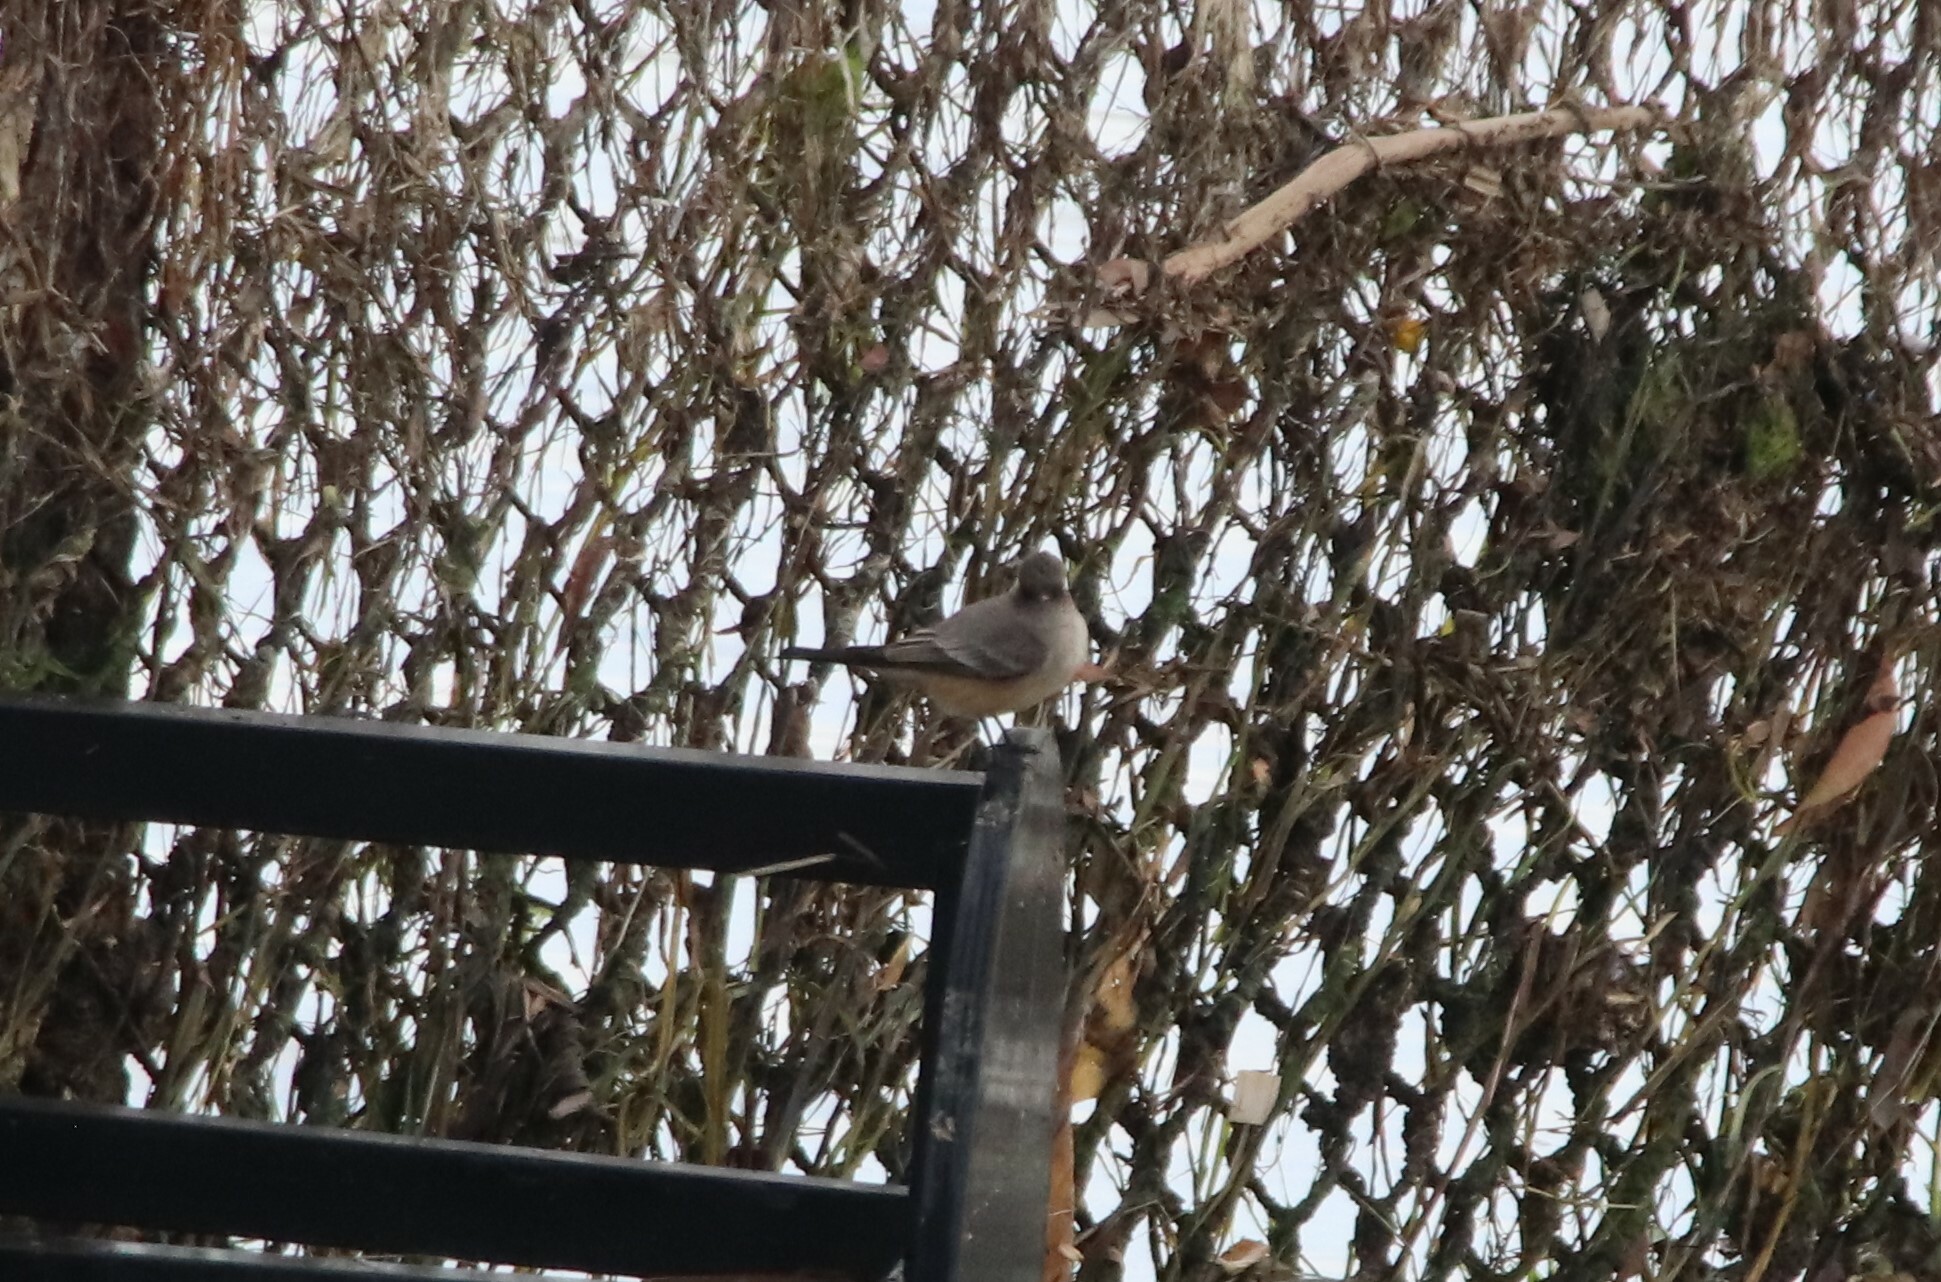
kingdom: Animalia
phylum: Chordata
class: Aves
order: Passeriformes
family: Tyrannidae
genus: Sayornis
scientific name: Sayornis saya
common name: Say's phoebe
